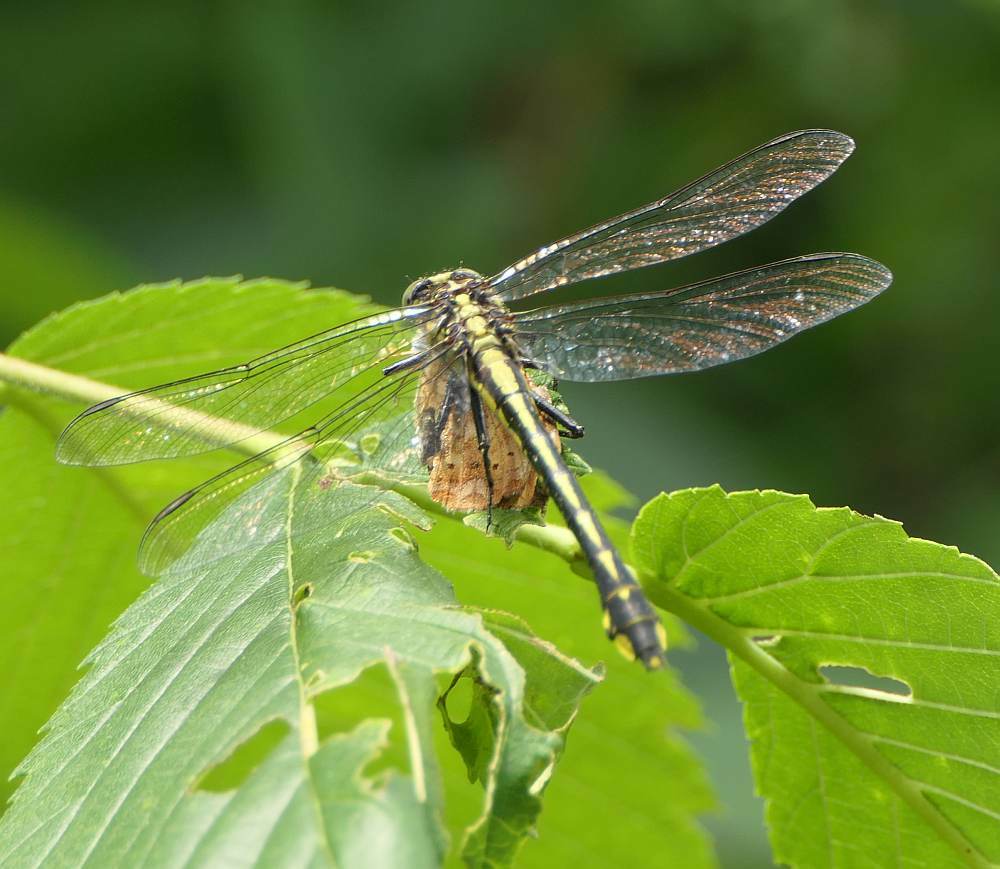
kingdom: Animalia
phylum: Arthropoda
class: Insecta
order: Odonata
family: Gomphidae
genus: Gomphurus
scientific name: Gomphurus fraternus
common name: Midland clubtail
